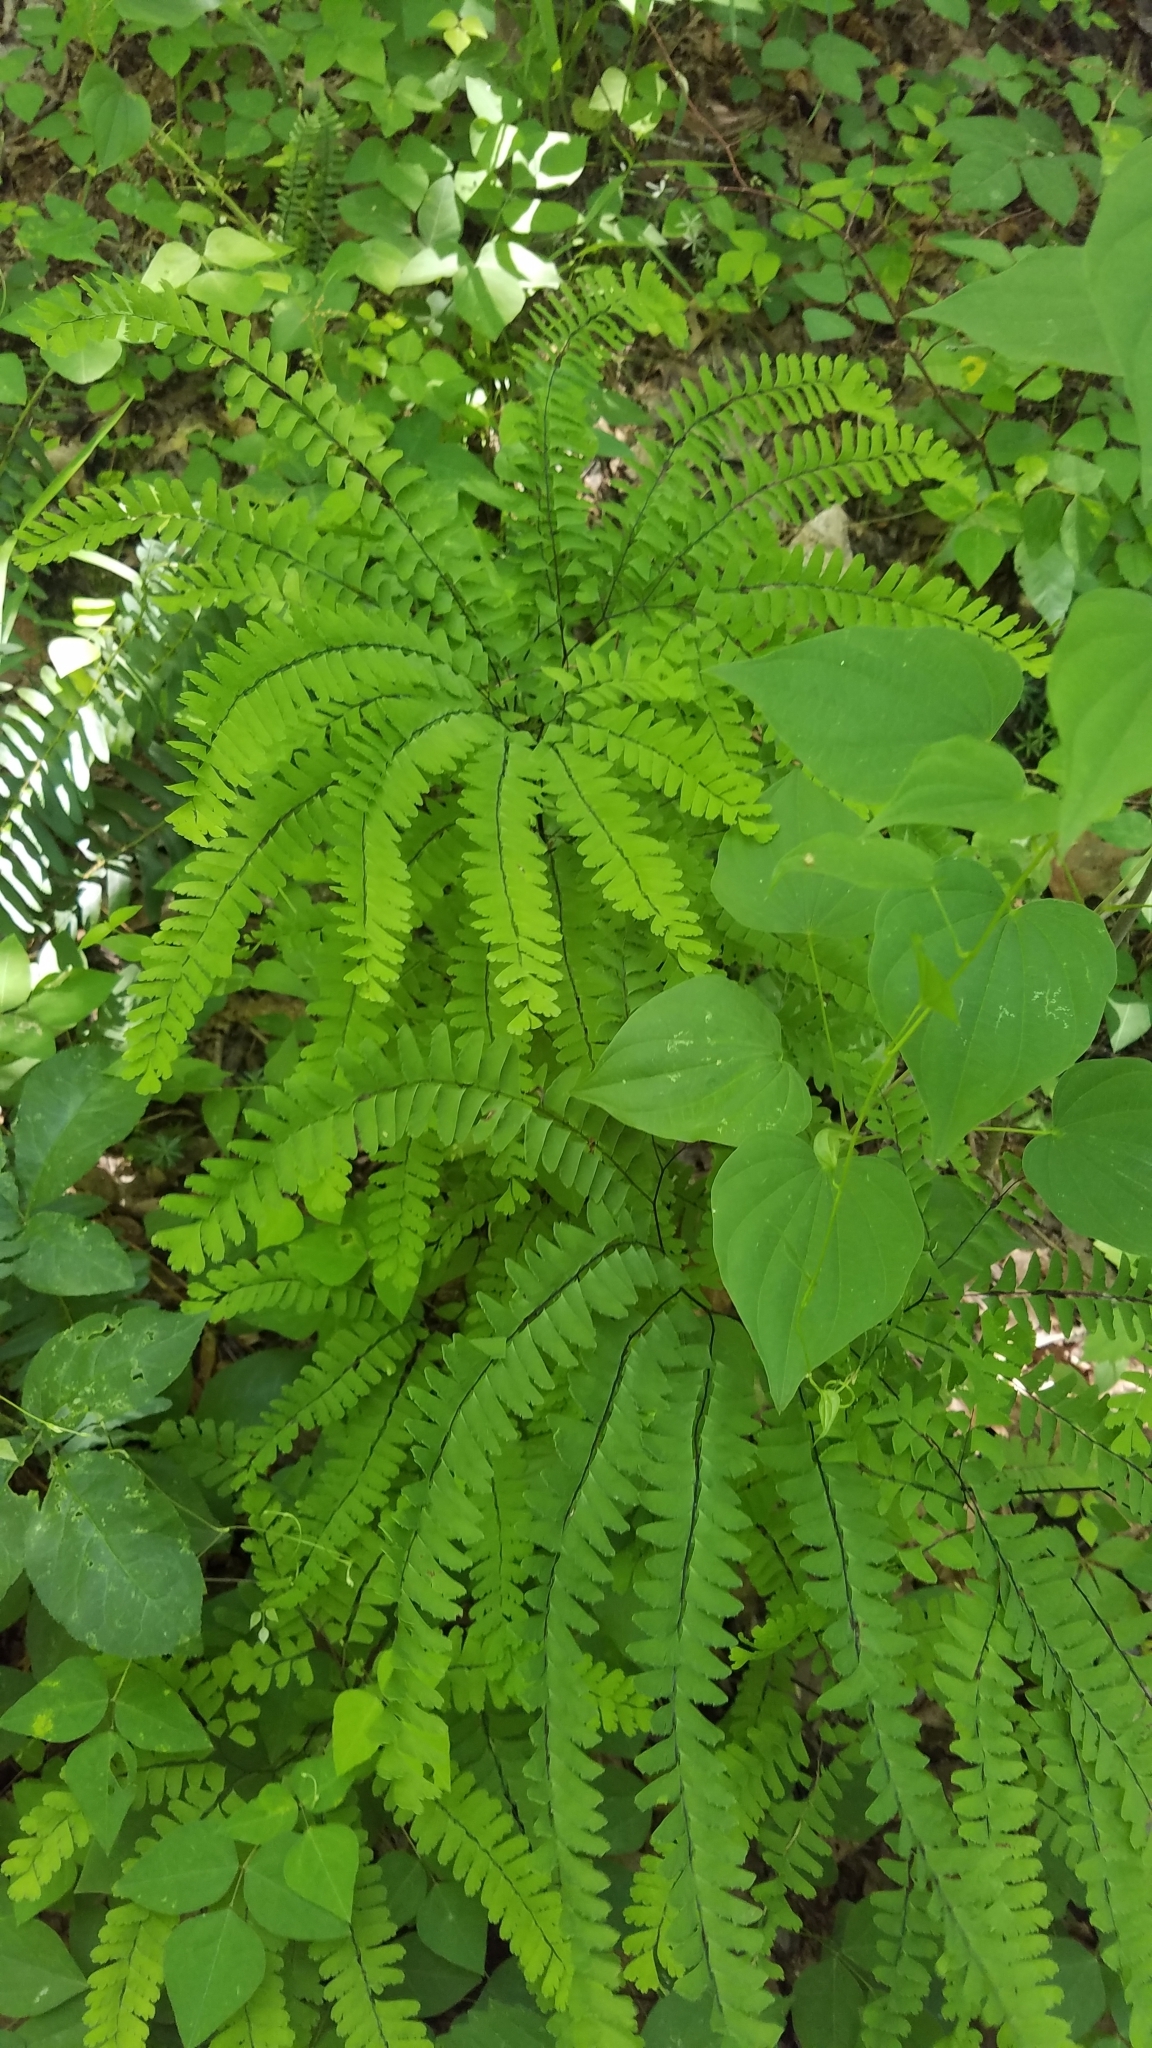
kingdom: Plantae
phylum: Tracheophyta
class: Polypodiopsida
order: Polypodiales
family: Pteridaceae
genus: Adiantum
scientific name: Adiantum pedatum
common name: Five-finger fern
